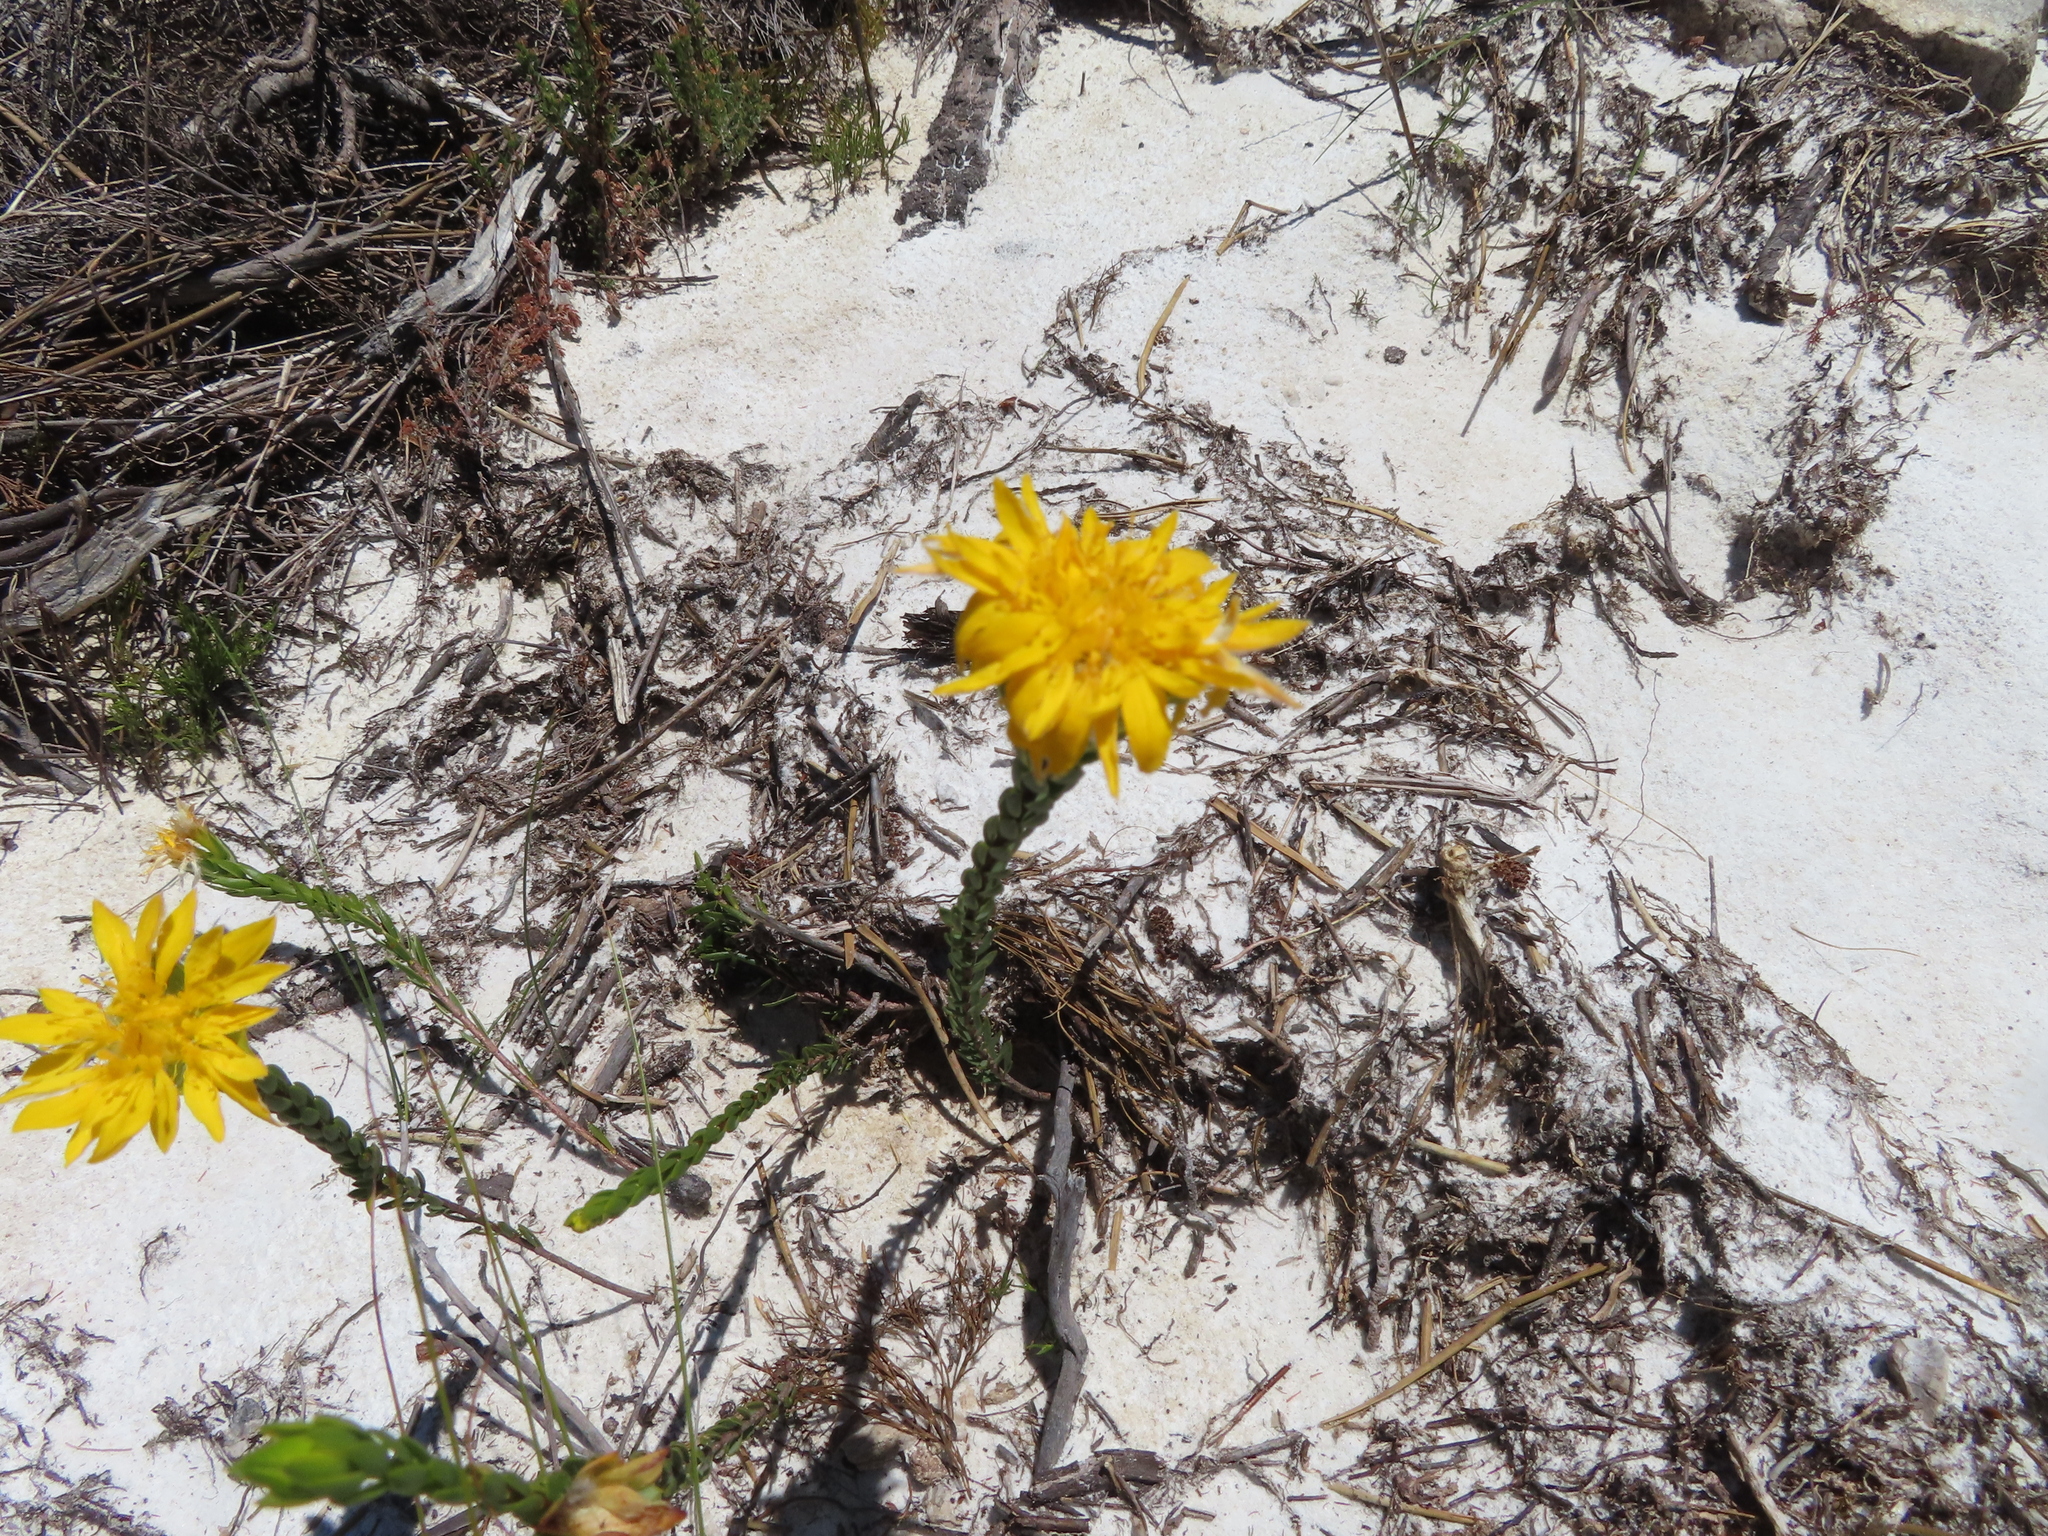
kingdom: Plantae
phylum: Tracheophyta
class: Magnoliopsida
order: Malvales
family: Thymelaeaceae
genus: Lachnaea
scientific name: Lachnaea aurea
